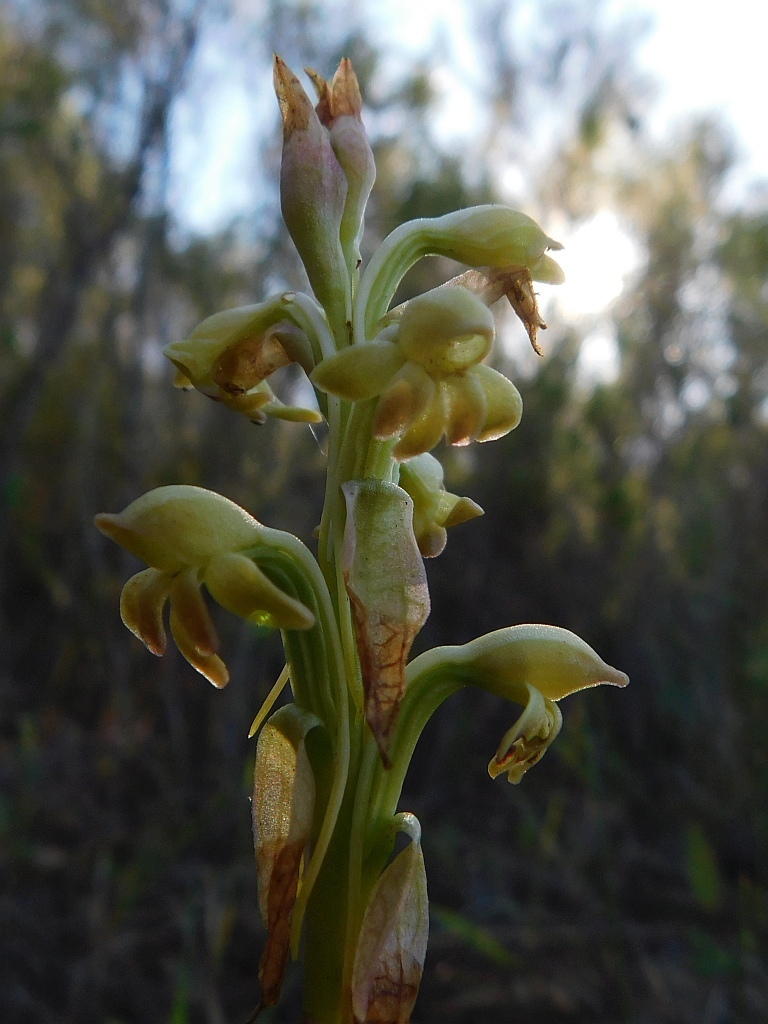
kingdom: Plantae
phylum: Tracheophyta
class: Liliopsida
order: Asparagales
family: Orchidaceae
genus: Satyrium
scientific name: Satyrium bicorne
